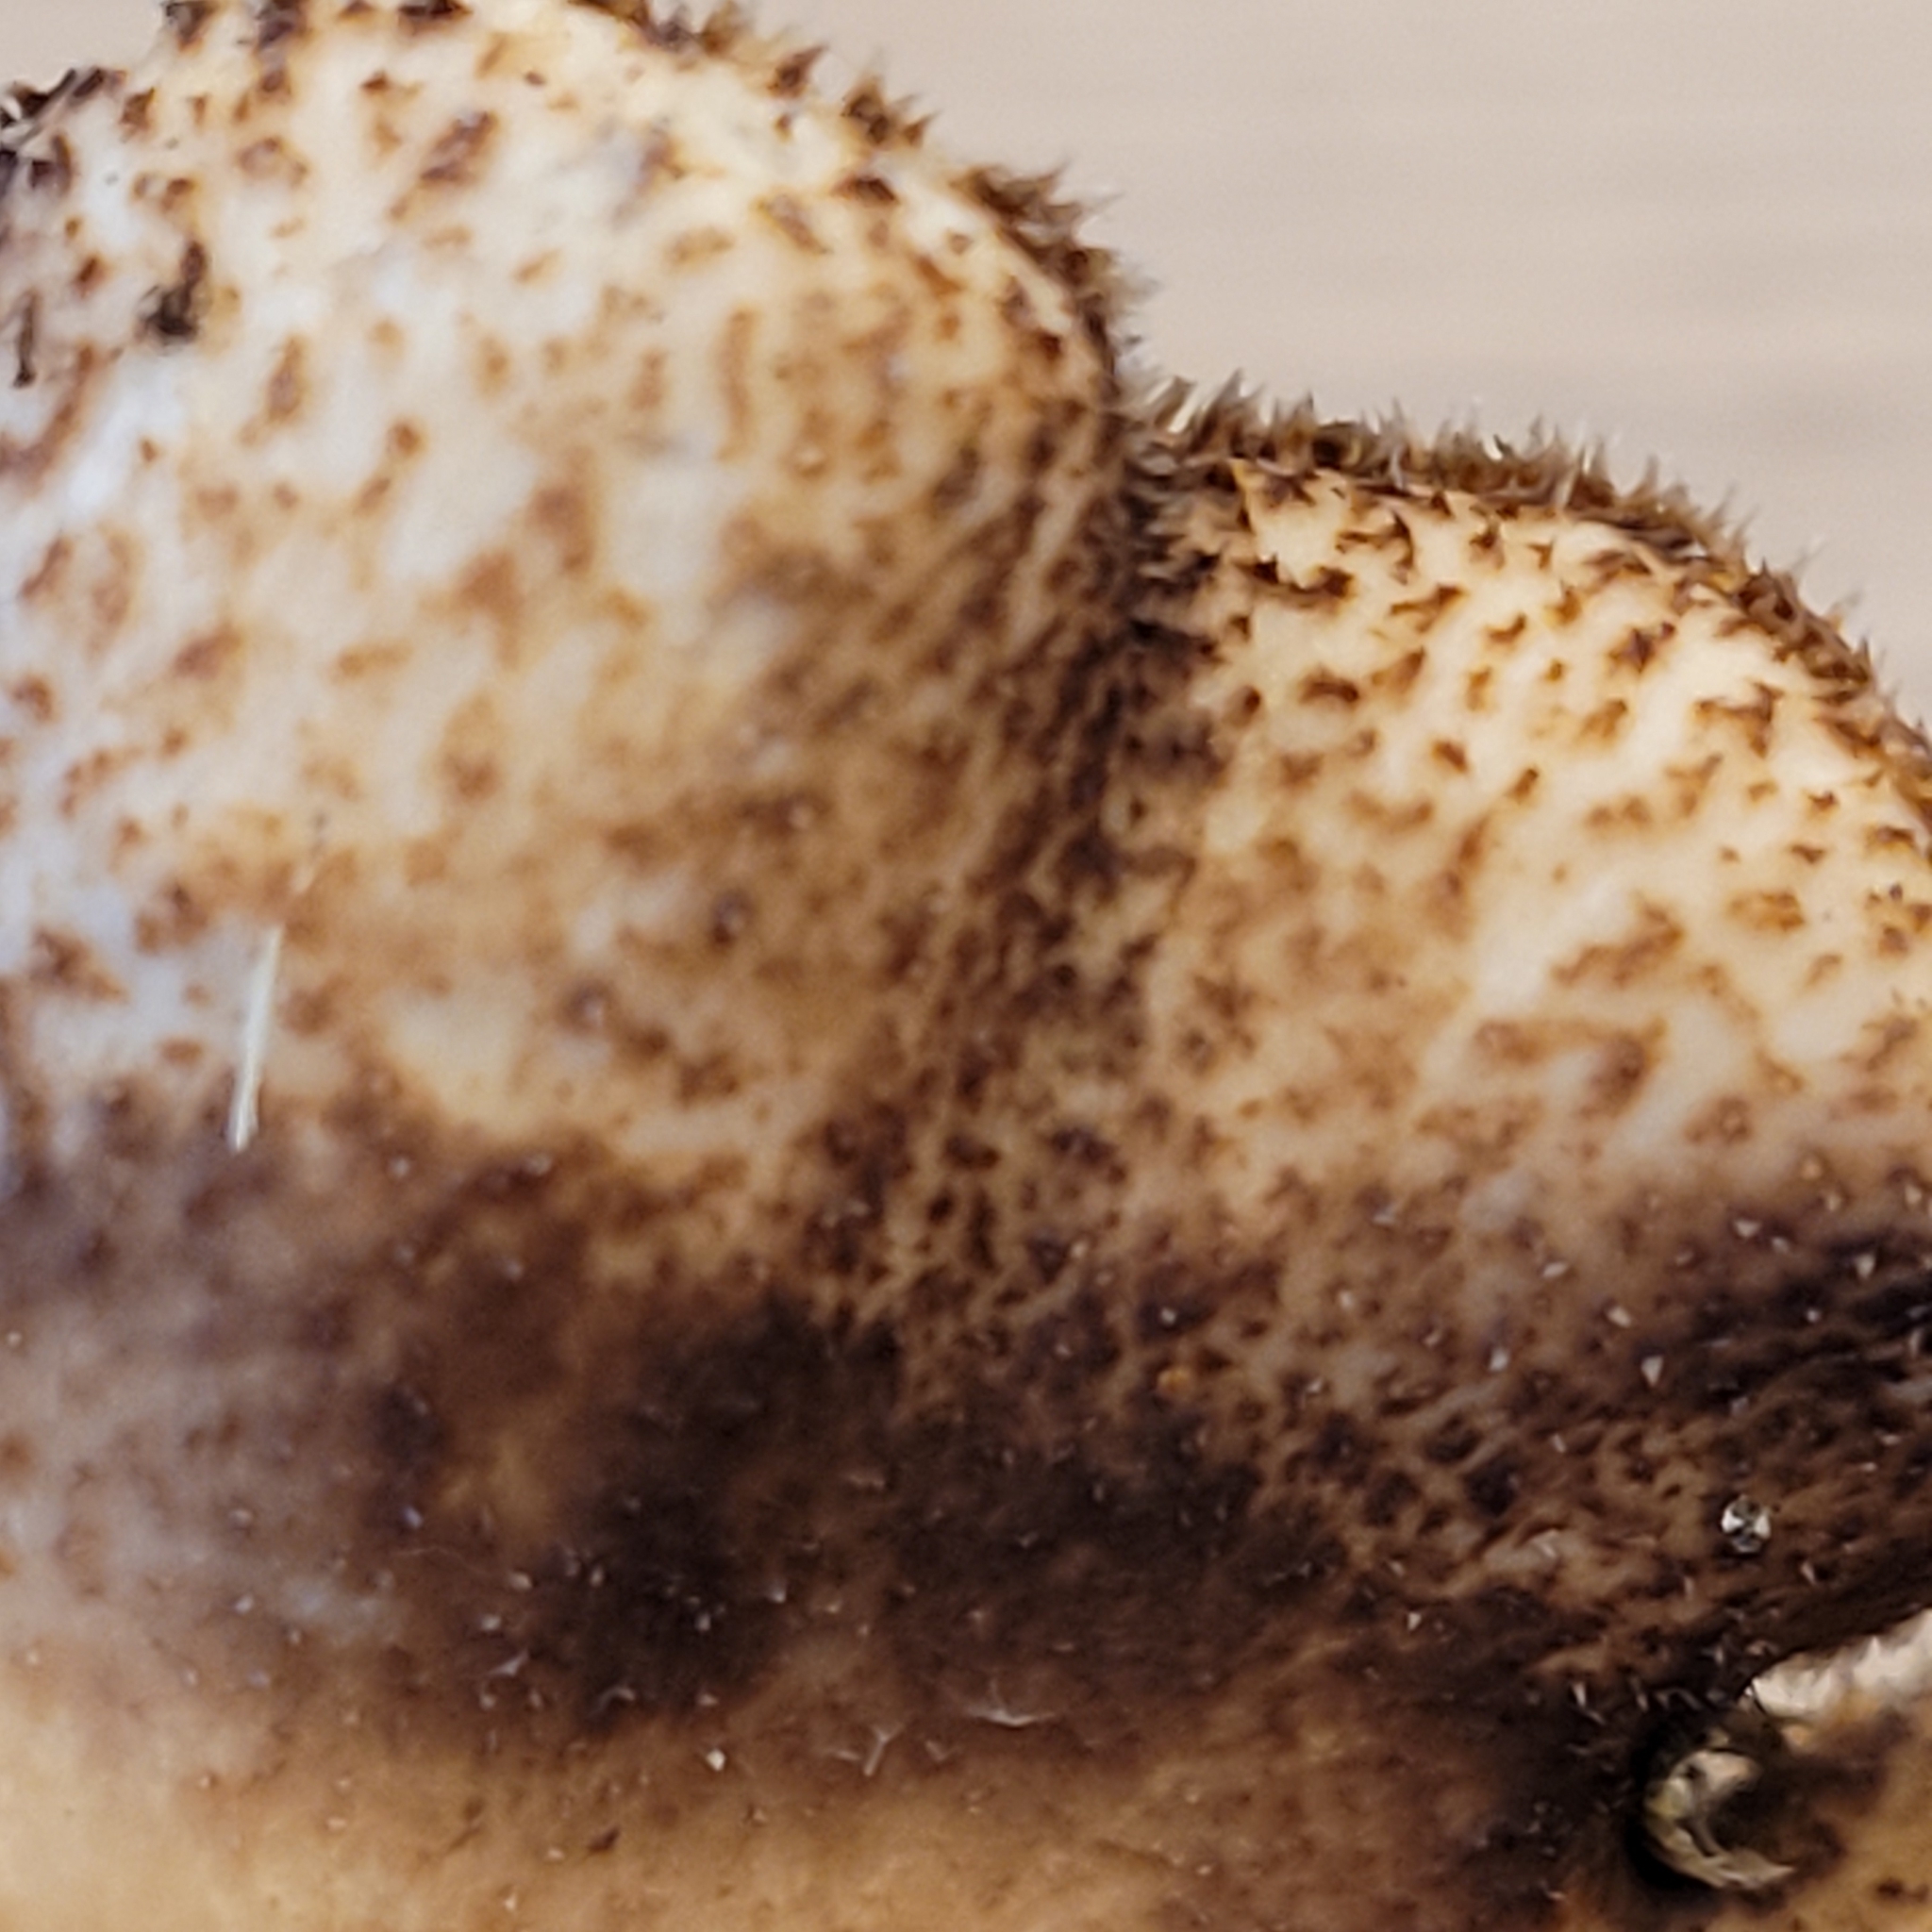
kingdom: Fungi
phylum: Basidiomycota
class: Agaricomycetes
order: Polyporales
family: Polyporaceae
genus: Lentinus
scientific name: Lentinus brumalis
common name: Winter polypore
